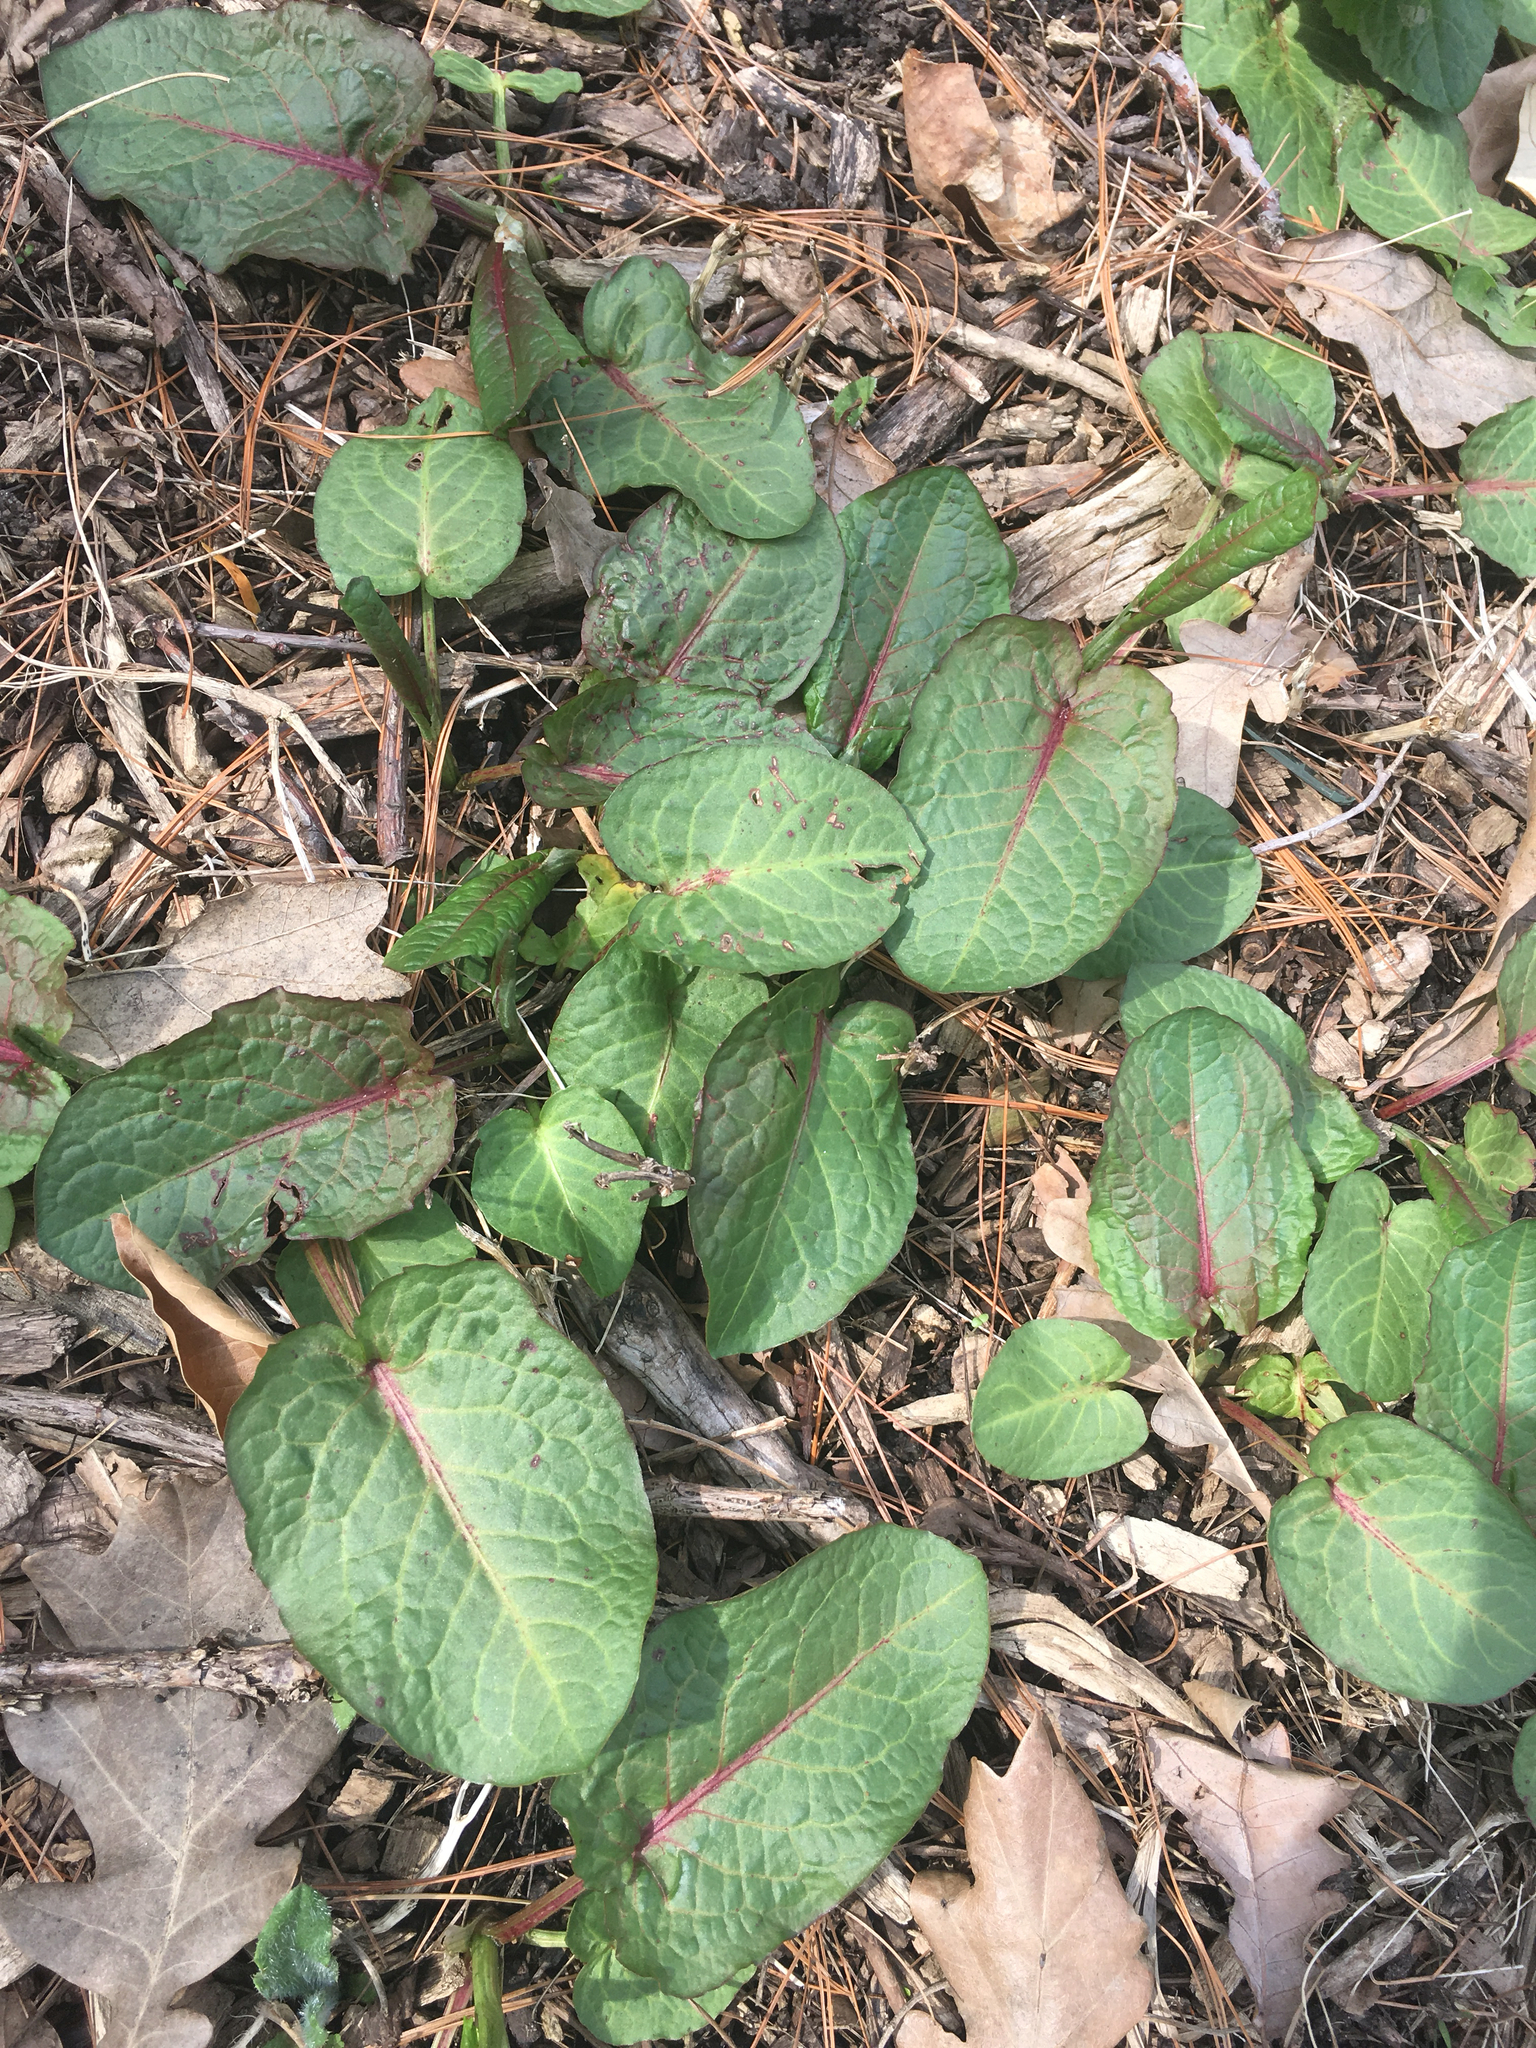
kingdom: Plantae
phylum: Tracheophyta
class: Magnoliopsida
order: Caryophyllales
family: Polygonaceae
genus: Rumex
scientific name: Rumex obtusifolius
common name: Bitter dock
